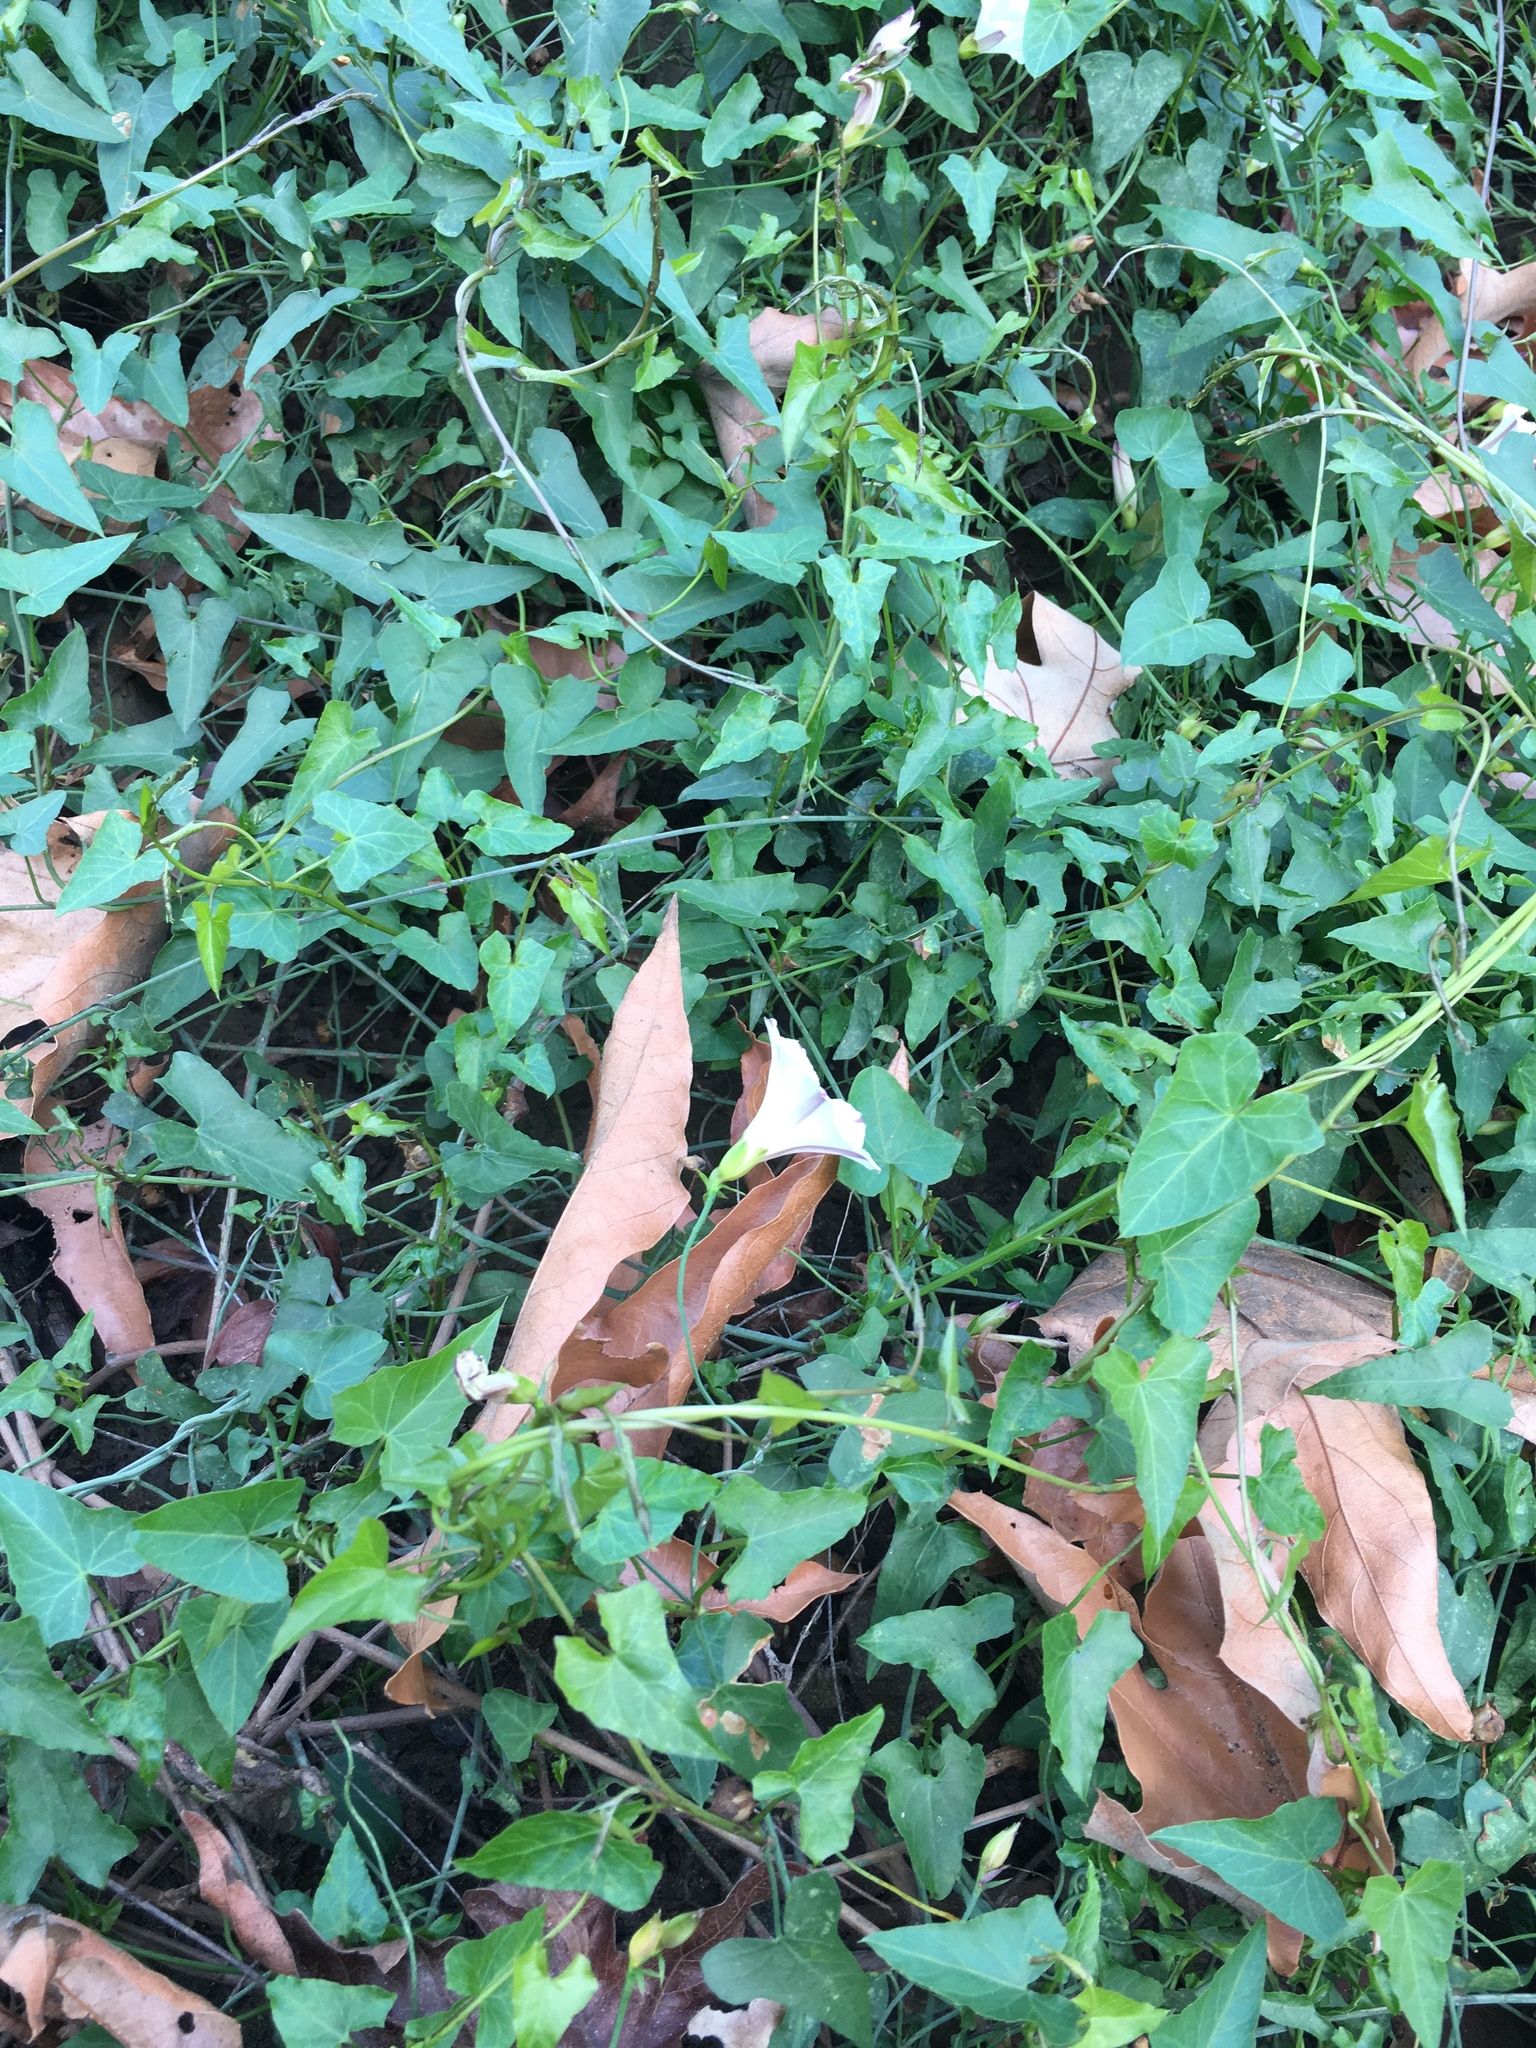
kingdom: Plantae
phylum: Tracheophyta
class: Magnoliopsida
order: Solanales
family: Convolvulaceae
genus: Calystegia
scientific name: Calystegia purpurata
